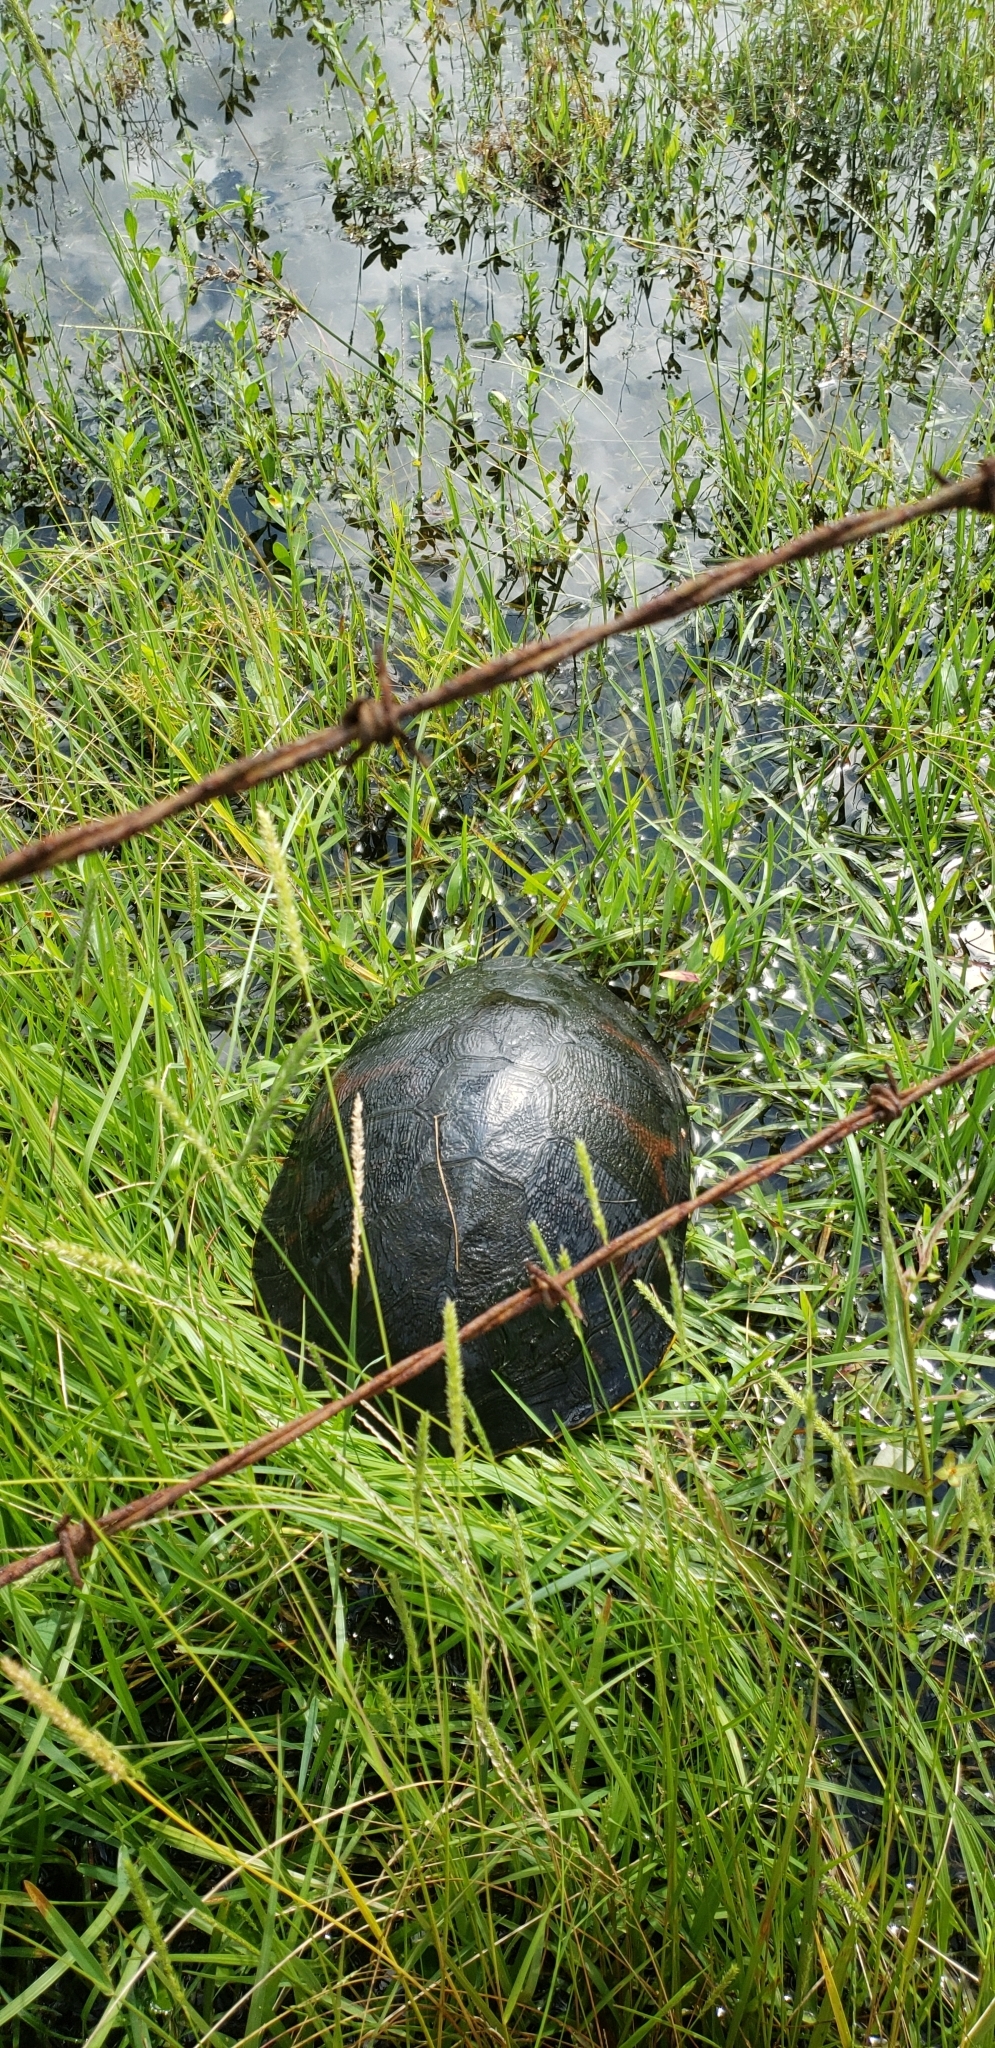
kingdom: Animalia
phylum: Chordata
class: Testudines
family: Emydidae
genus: Pseudemys
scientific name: Pseudemys nelsoni
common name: Florida red-bellied turtle
